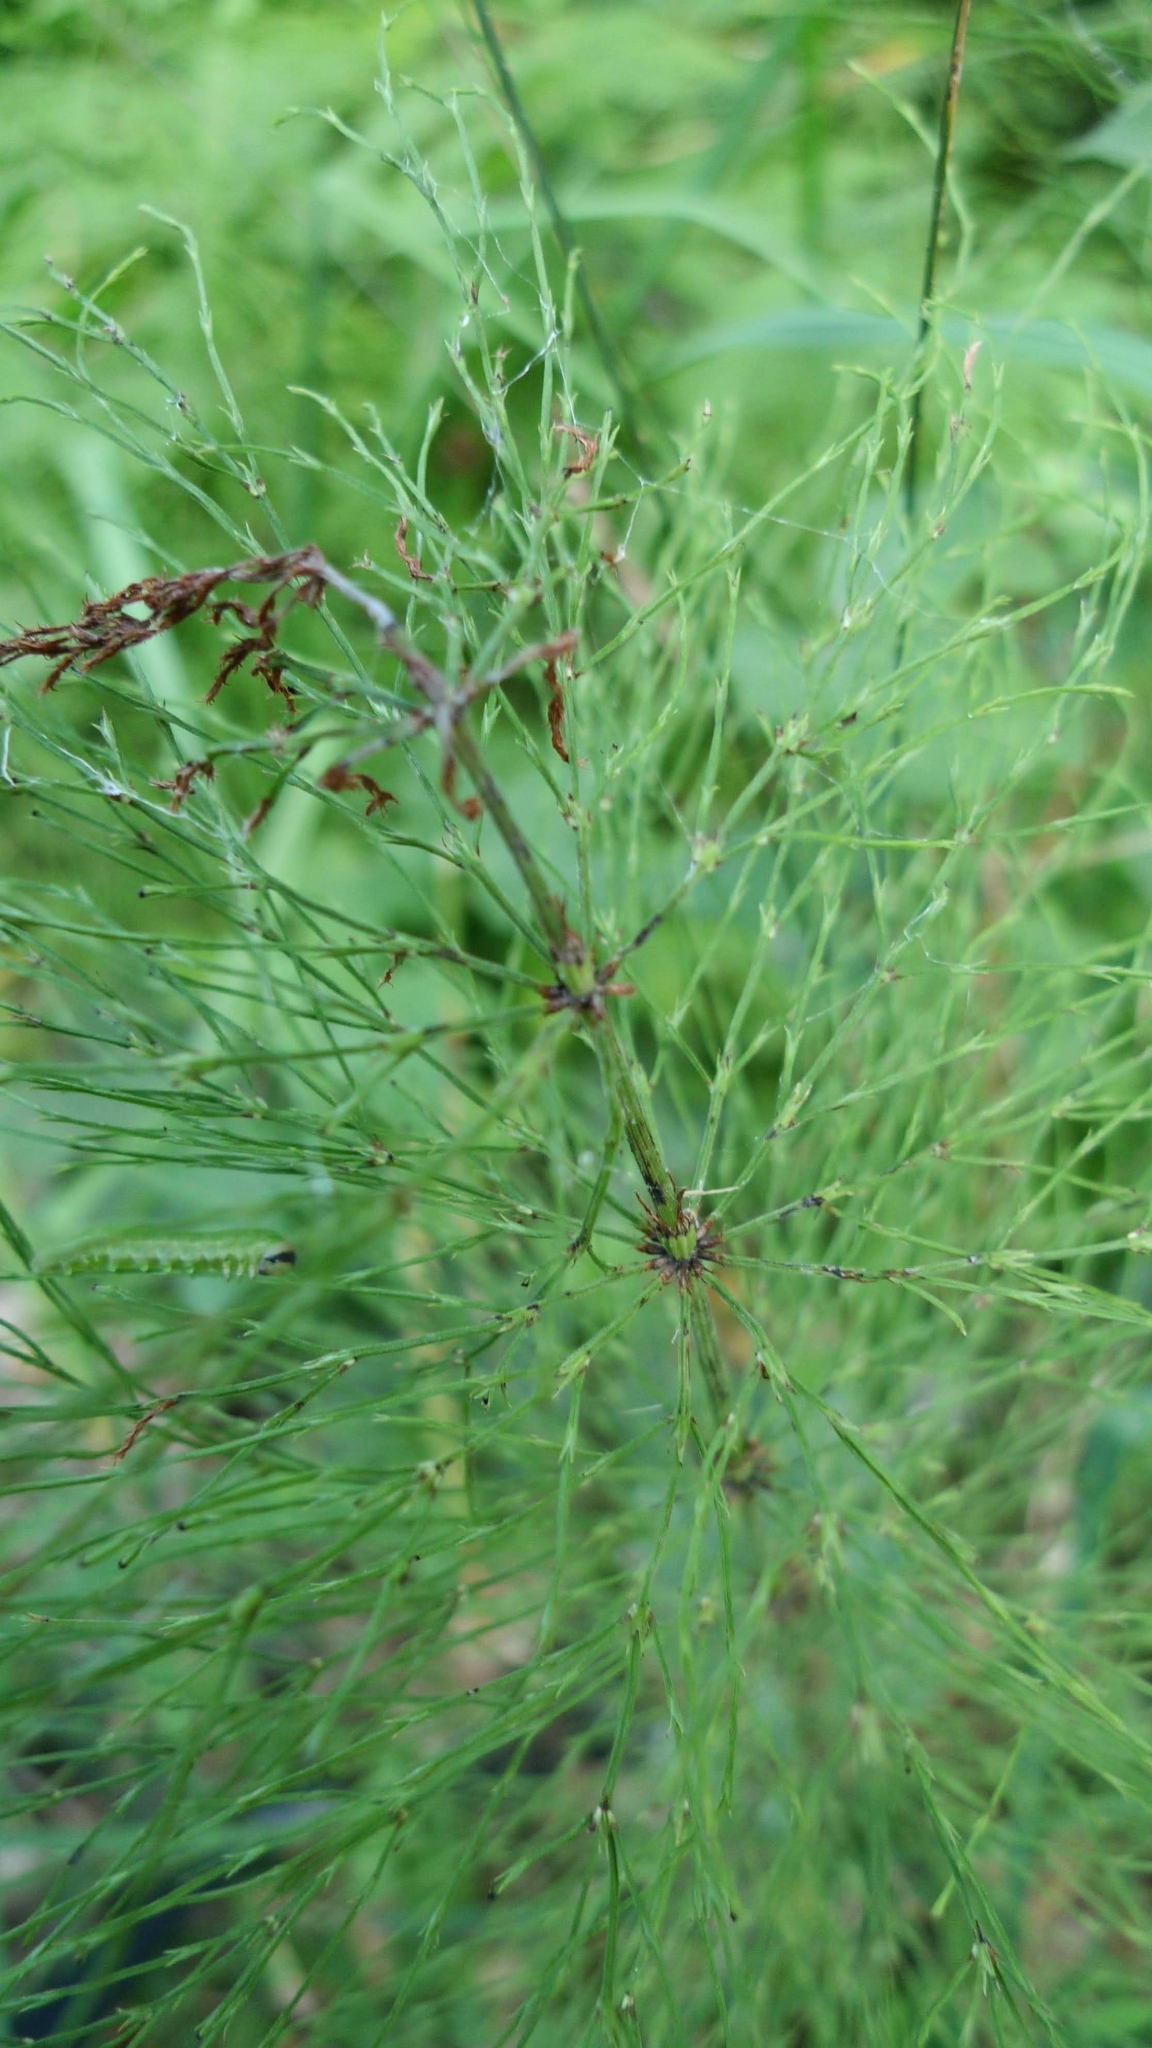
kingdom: Plantae
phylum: Tracheophyta
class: Polypodiopsida
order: Equisetales
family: Equisetaceae
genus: Equisetum
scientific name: Equisetum sylvaticum
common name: Wood horsetail
